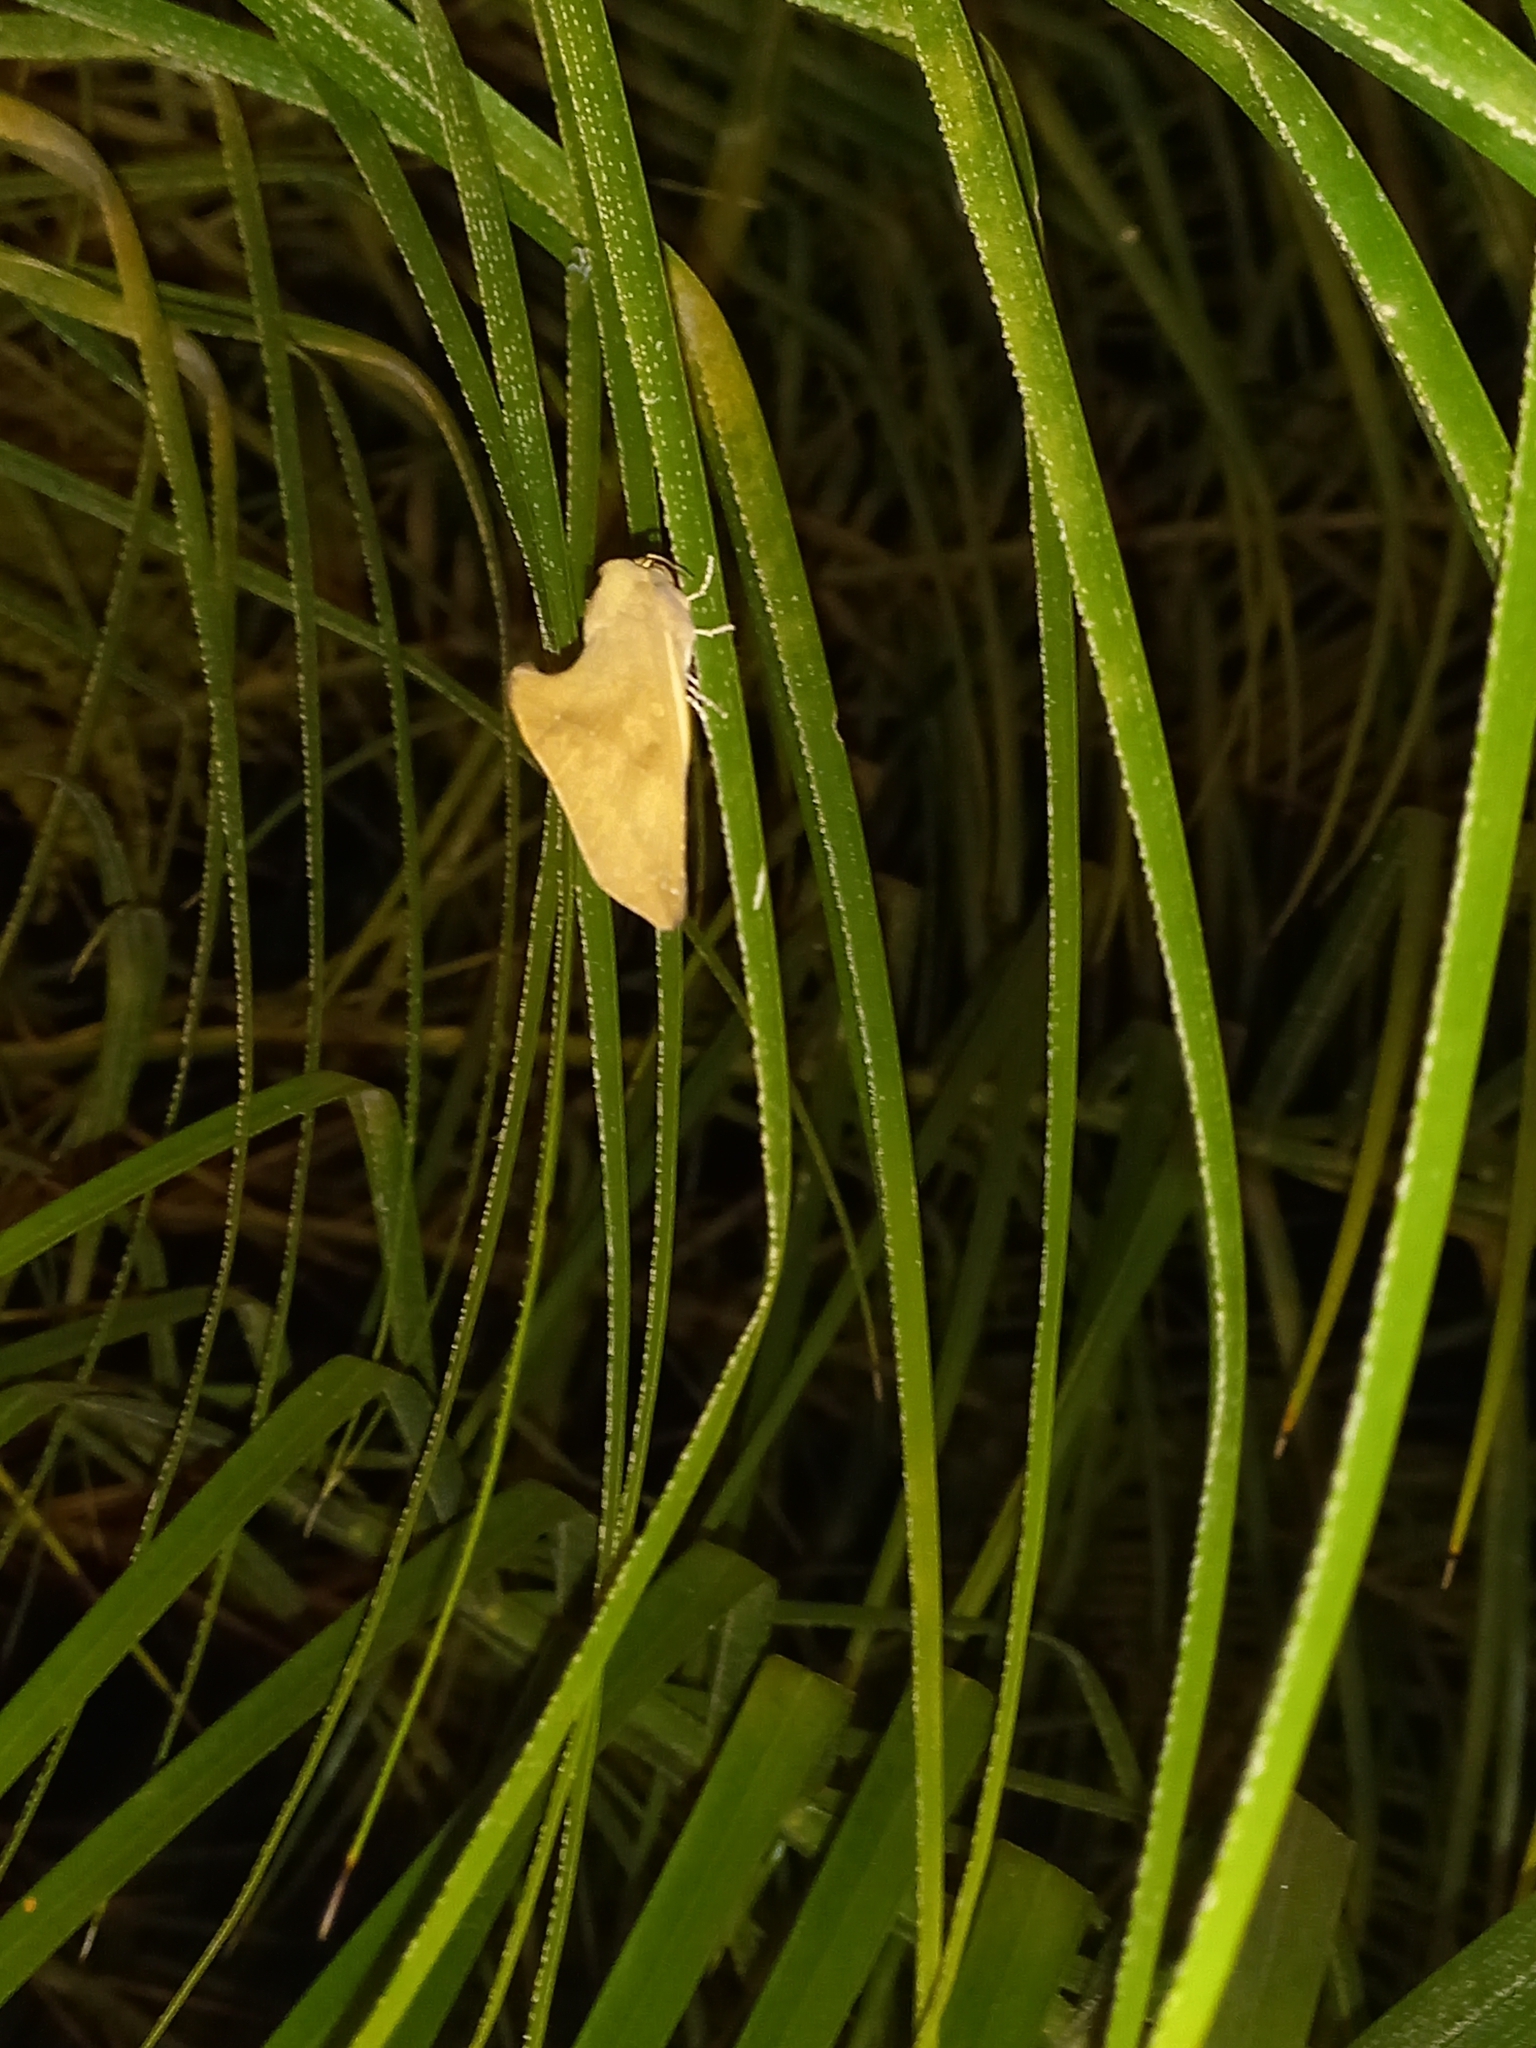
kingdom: Animalia
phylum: Arthropoda
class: Insecta
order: Lepidoptera
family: Notodontidae
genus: Rhapigia
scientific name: Rhapigia accipiter
